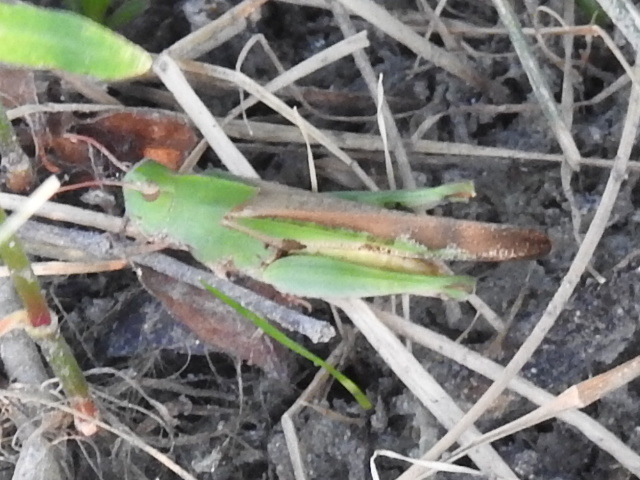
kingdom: Animalia
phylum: Arthropoda
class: Insecta
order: Orthoptera
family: Acrididae
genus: Chortophaga
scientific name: Chortophaga viridifasciata
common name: Green-striped grasshopper
